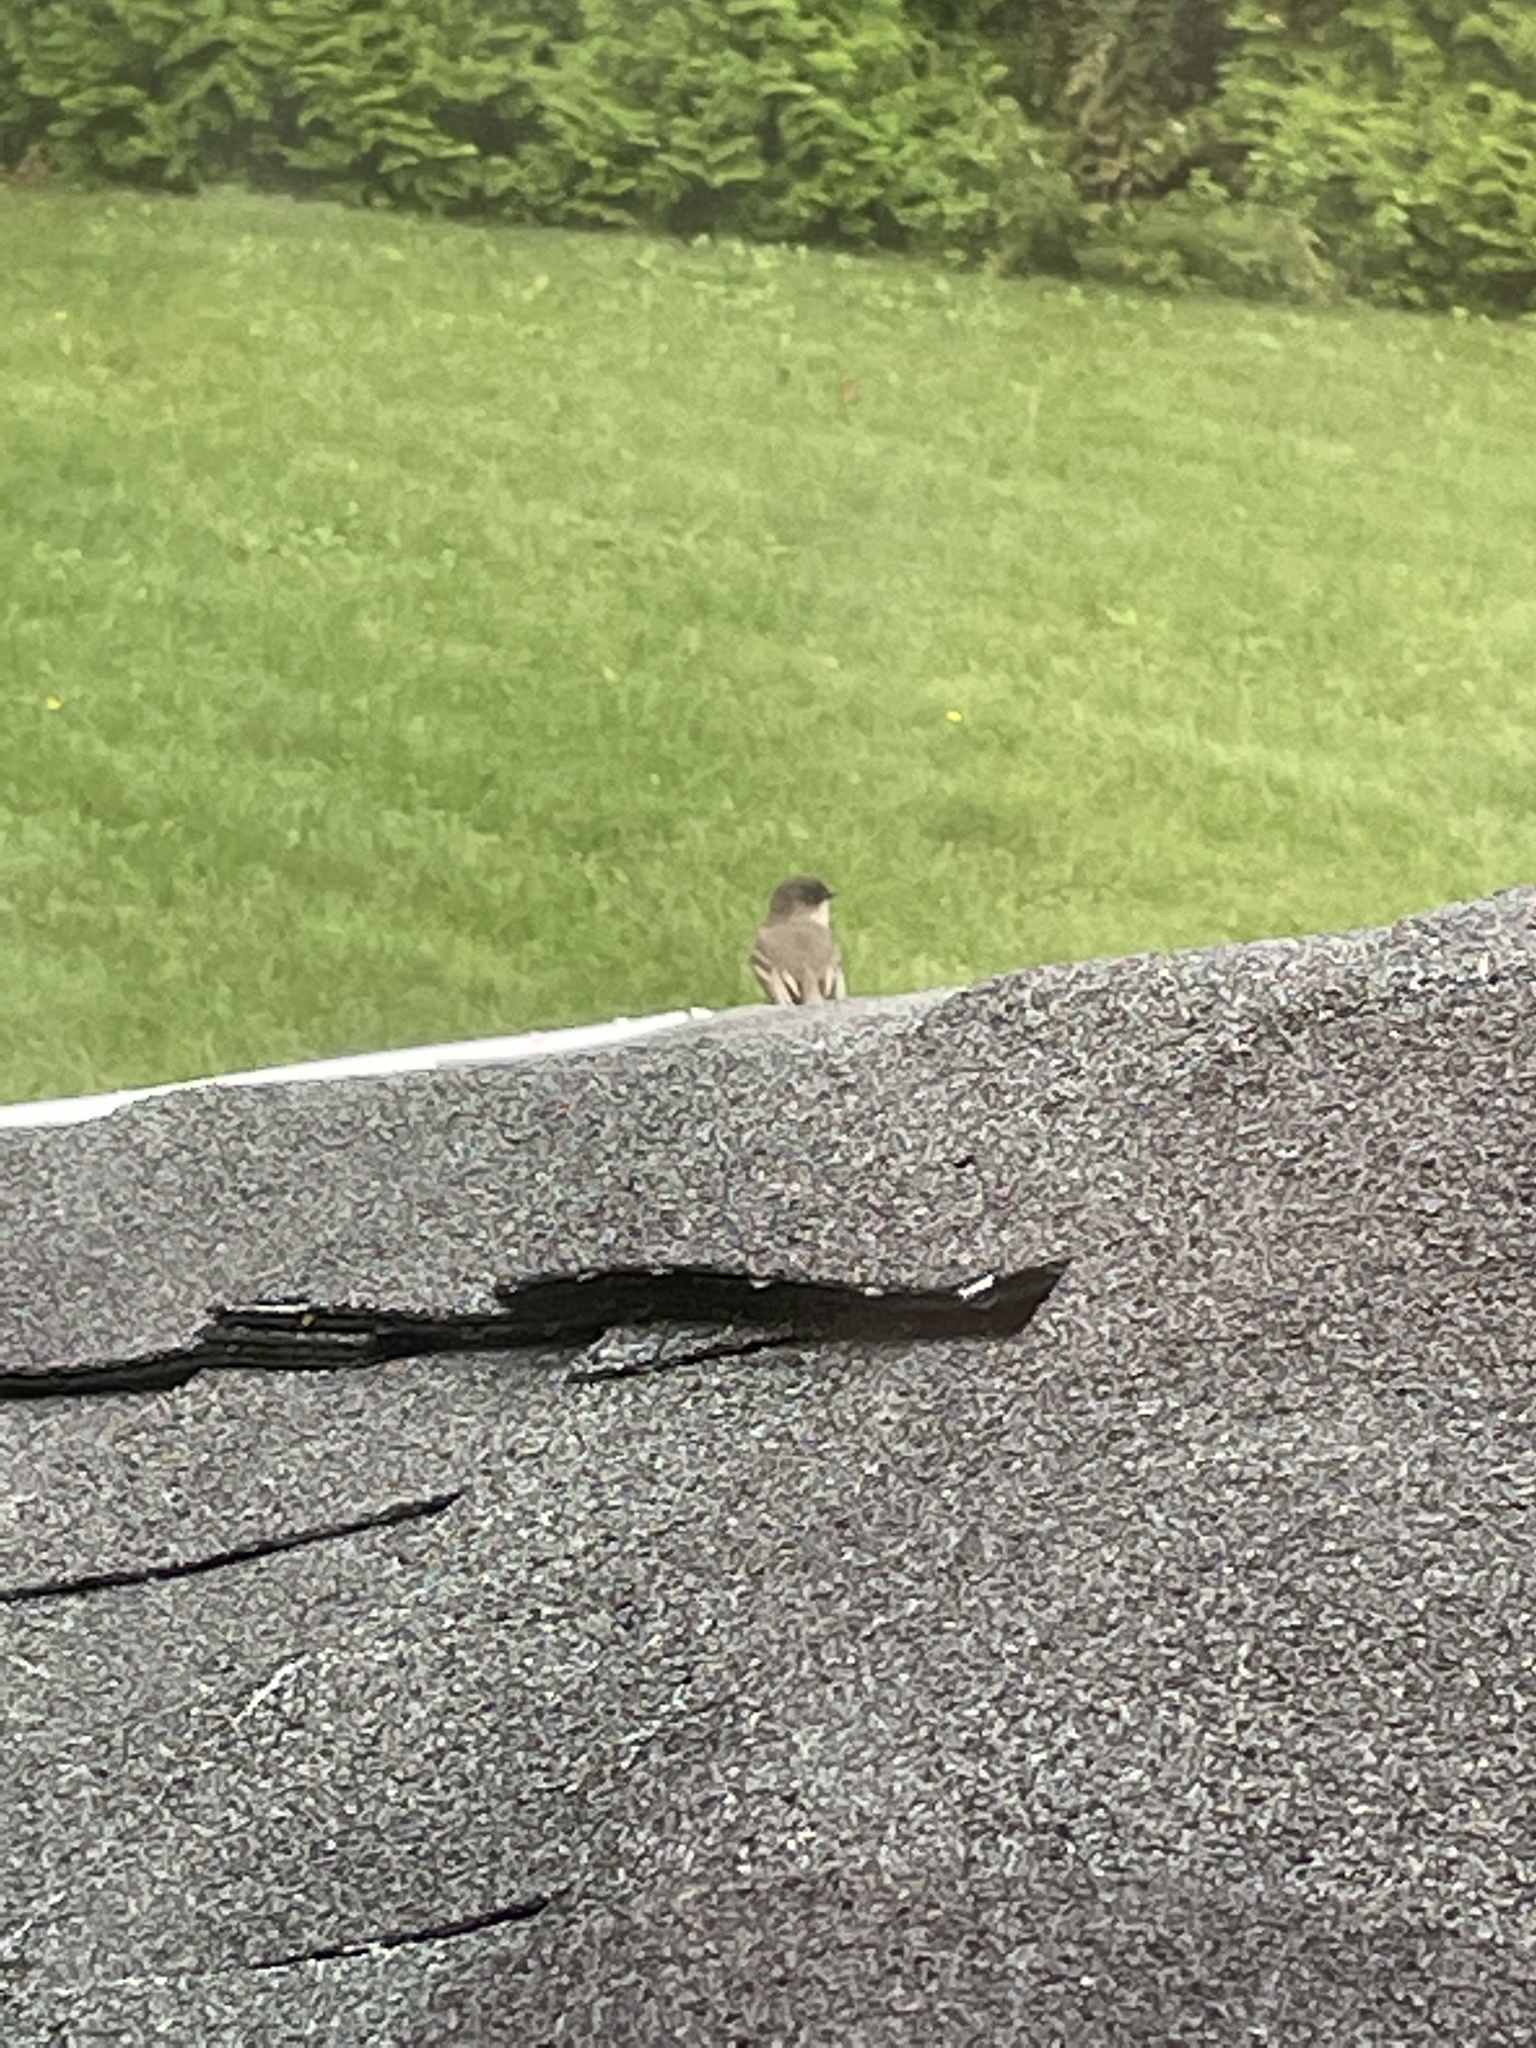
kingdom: Animalia
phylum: Chordata
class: Aves
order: Passeriformes
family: Tyrannidae
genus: Sayornis
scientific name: Sayornis phoebe
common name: Eastern phoebe
